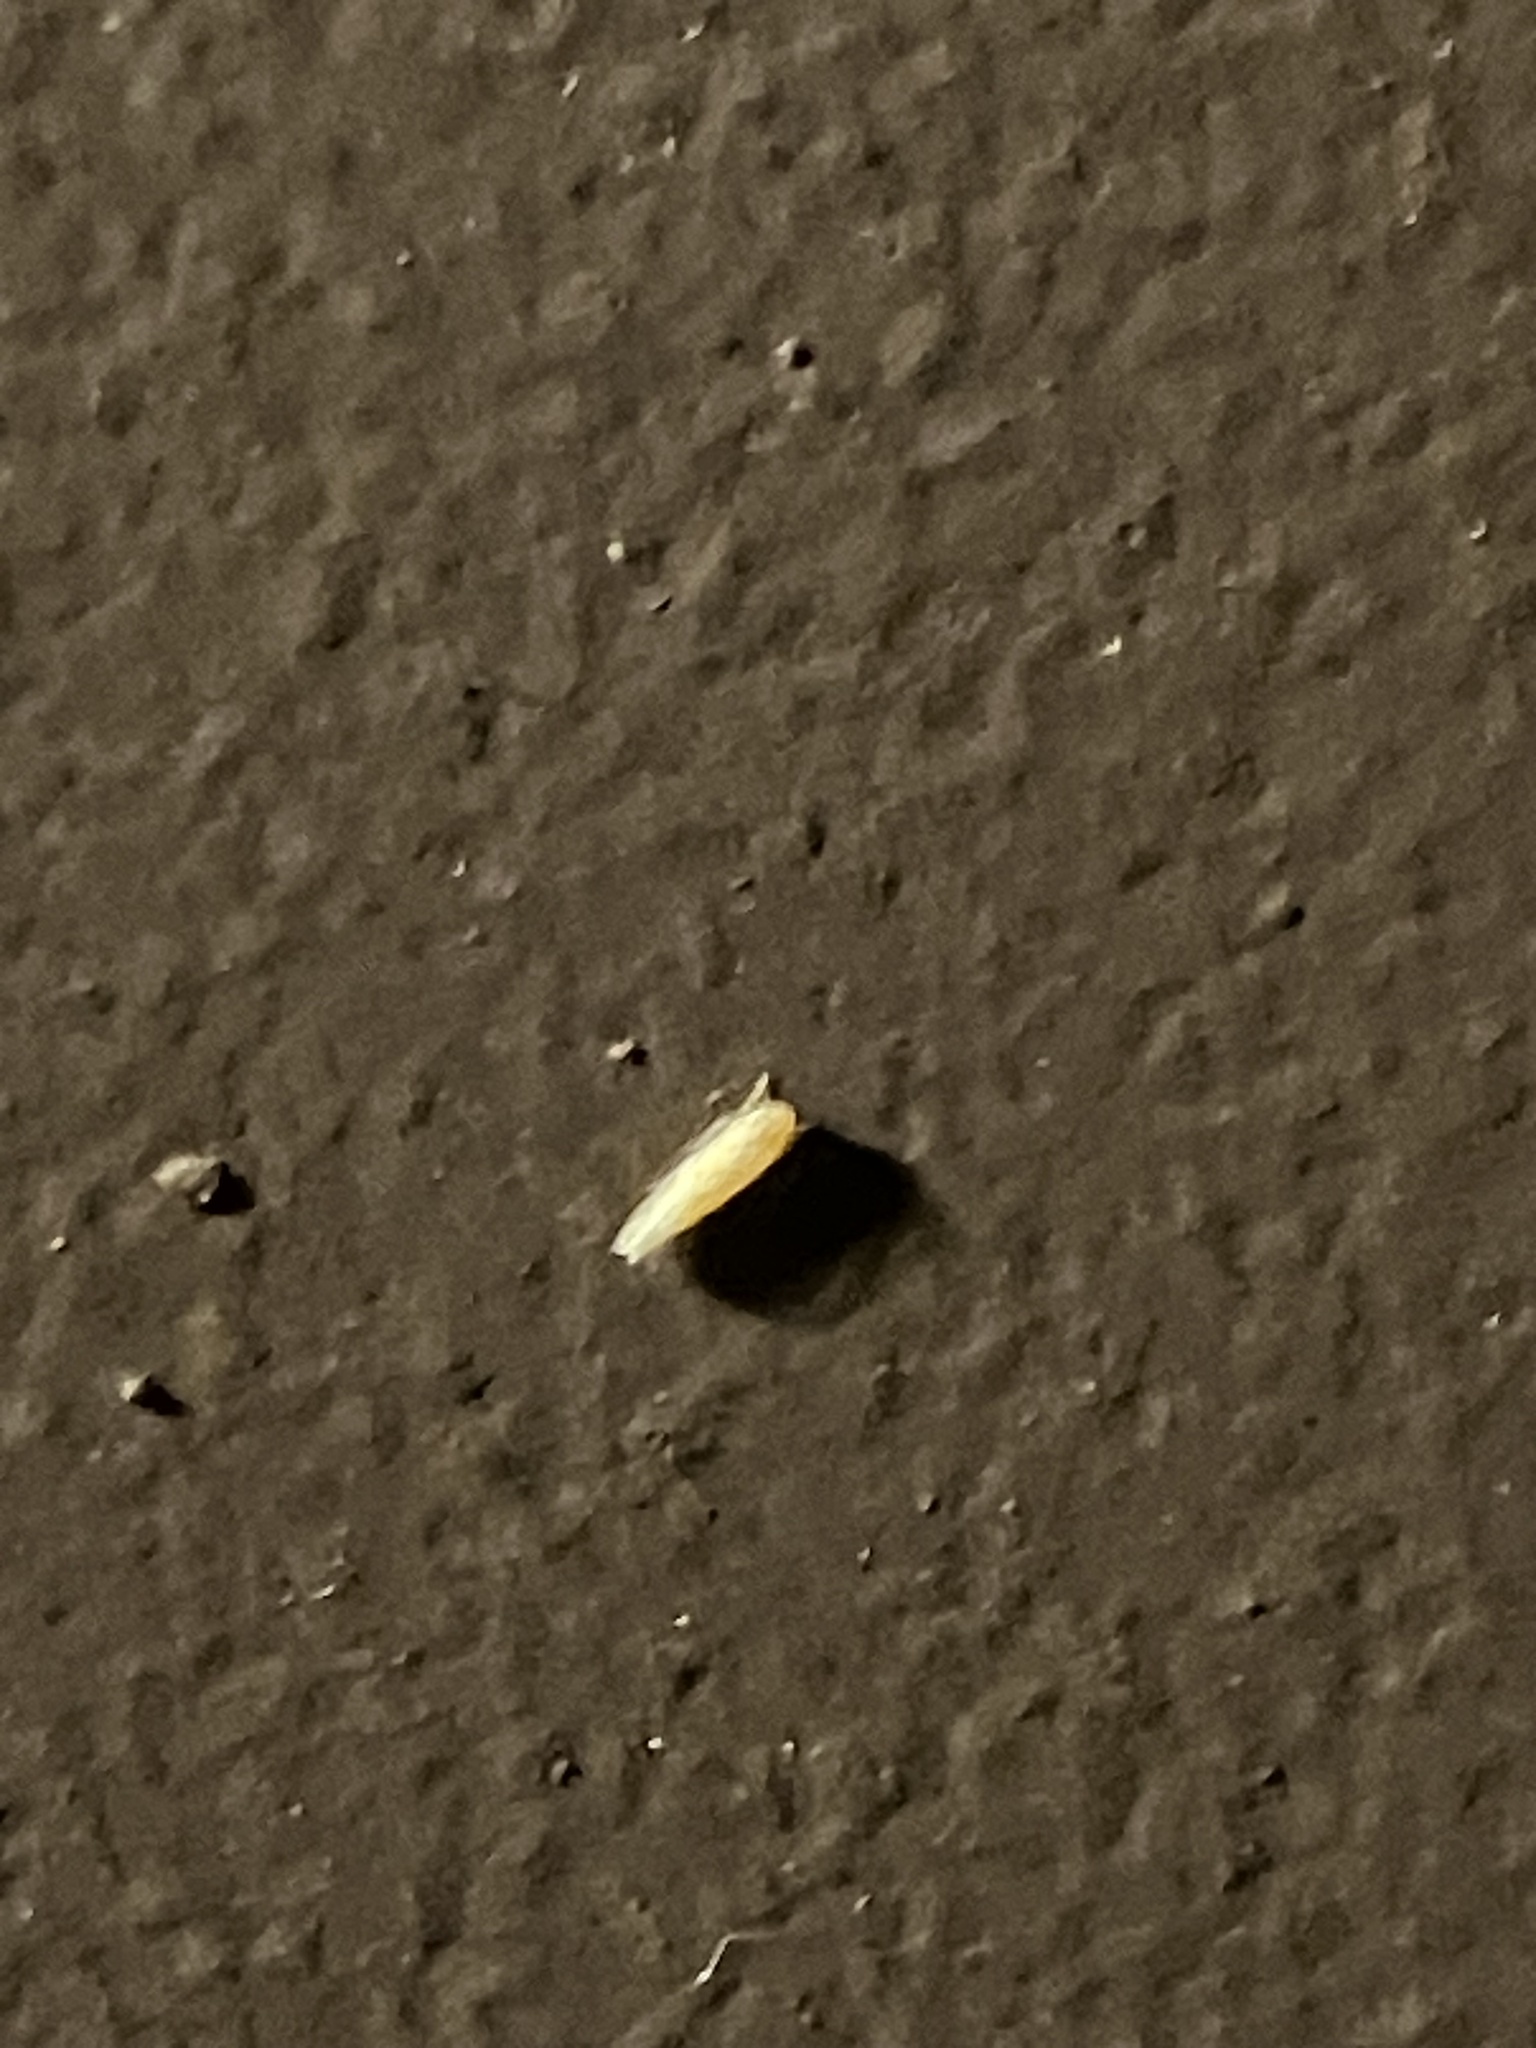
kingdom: Animalia
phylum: Arthropoda
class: Insecta
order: Hemiptera
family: Cicadellidae
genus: Eratoneura
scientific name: Eratoneura
